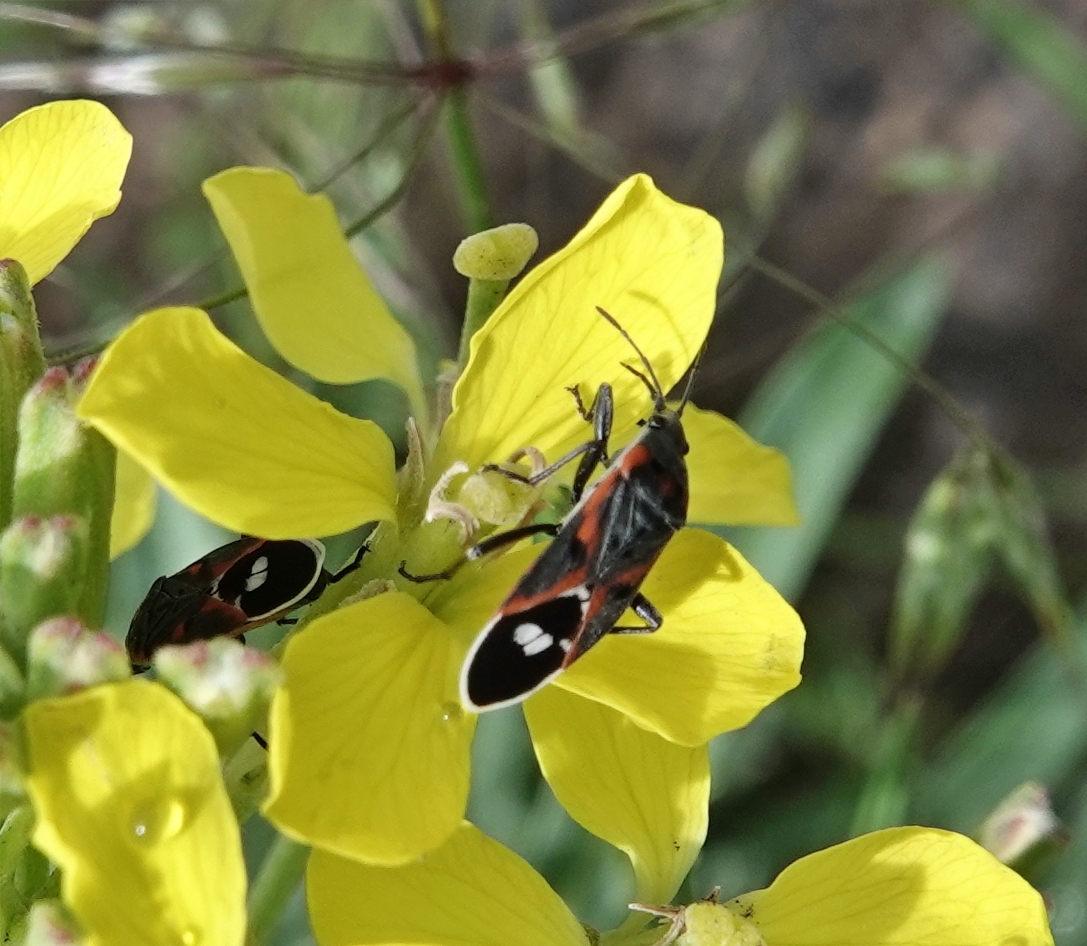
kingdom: Animalia
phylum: Arthropoda
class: Insecta
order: Hemiptera
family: Lygaeidae
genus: Lygaeus
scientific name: Lygaeus kalmii
